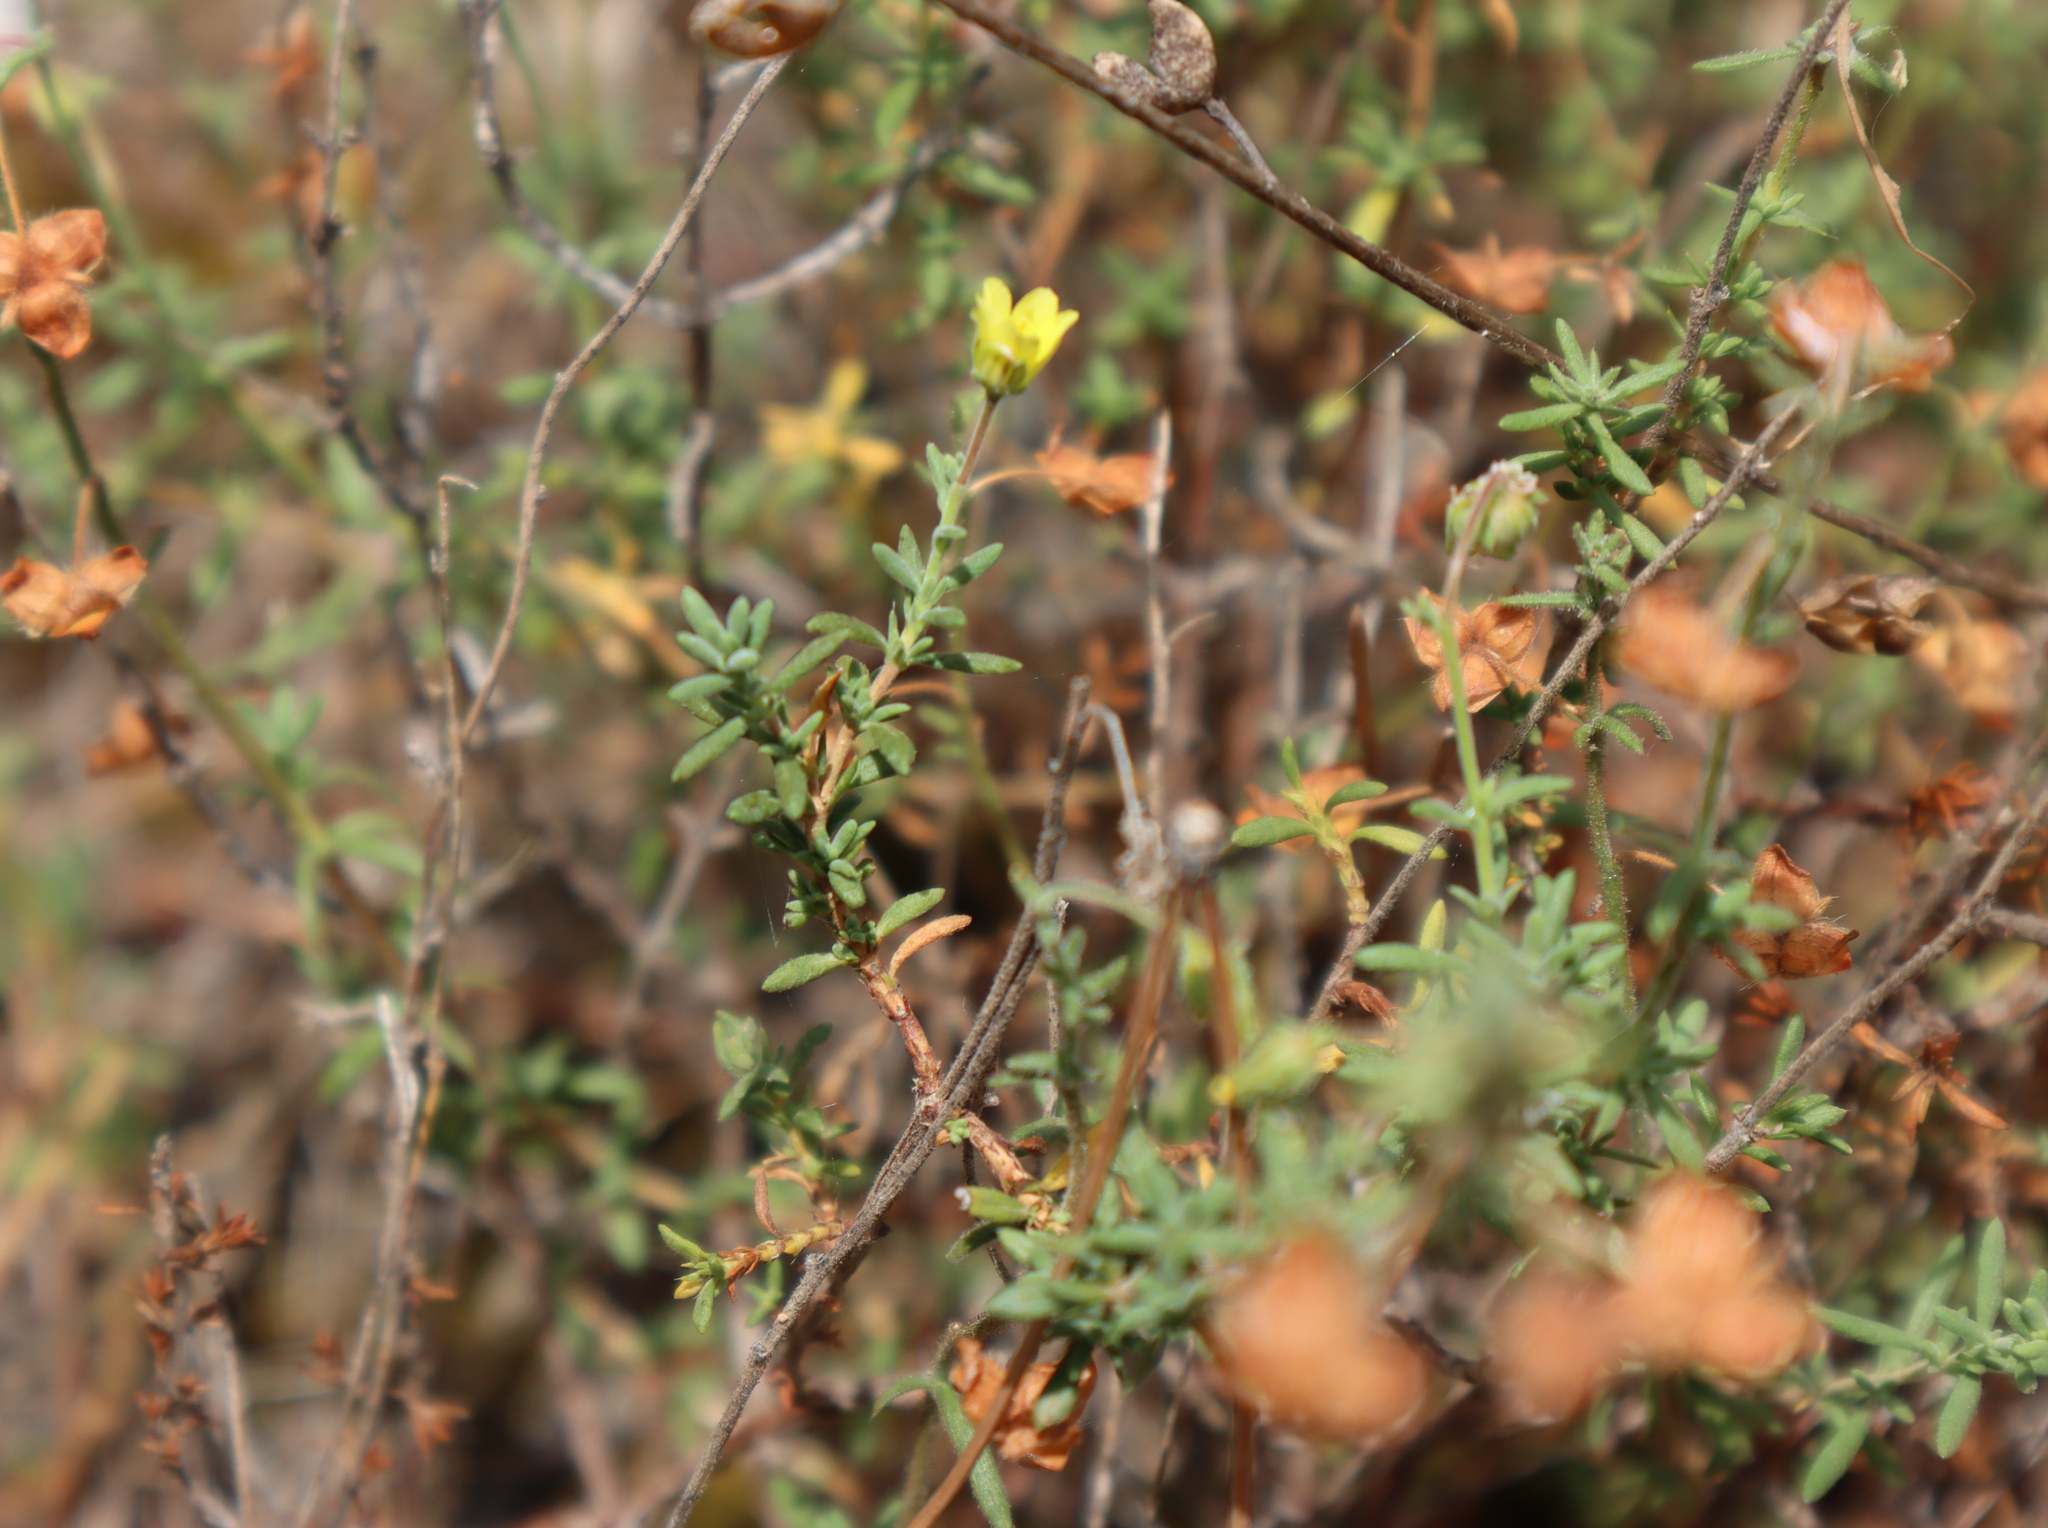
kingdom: Plantae
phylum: Tracheophyta
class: Magnoliopsida
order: Malvales
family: Cistaceae
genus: Fumana
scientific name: Fumana thymifolia
